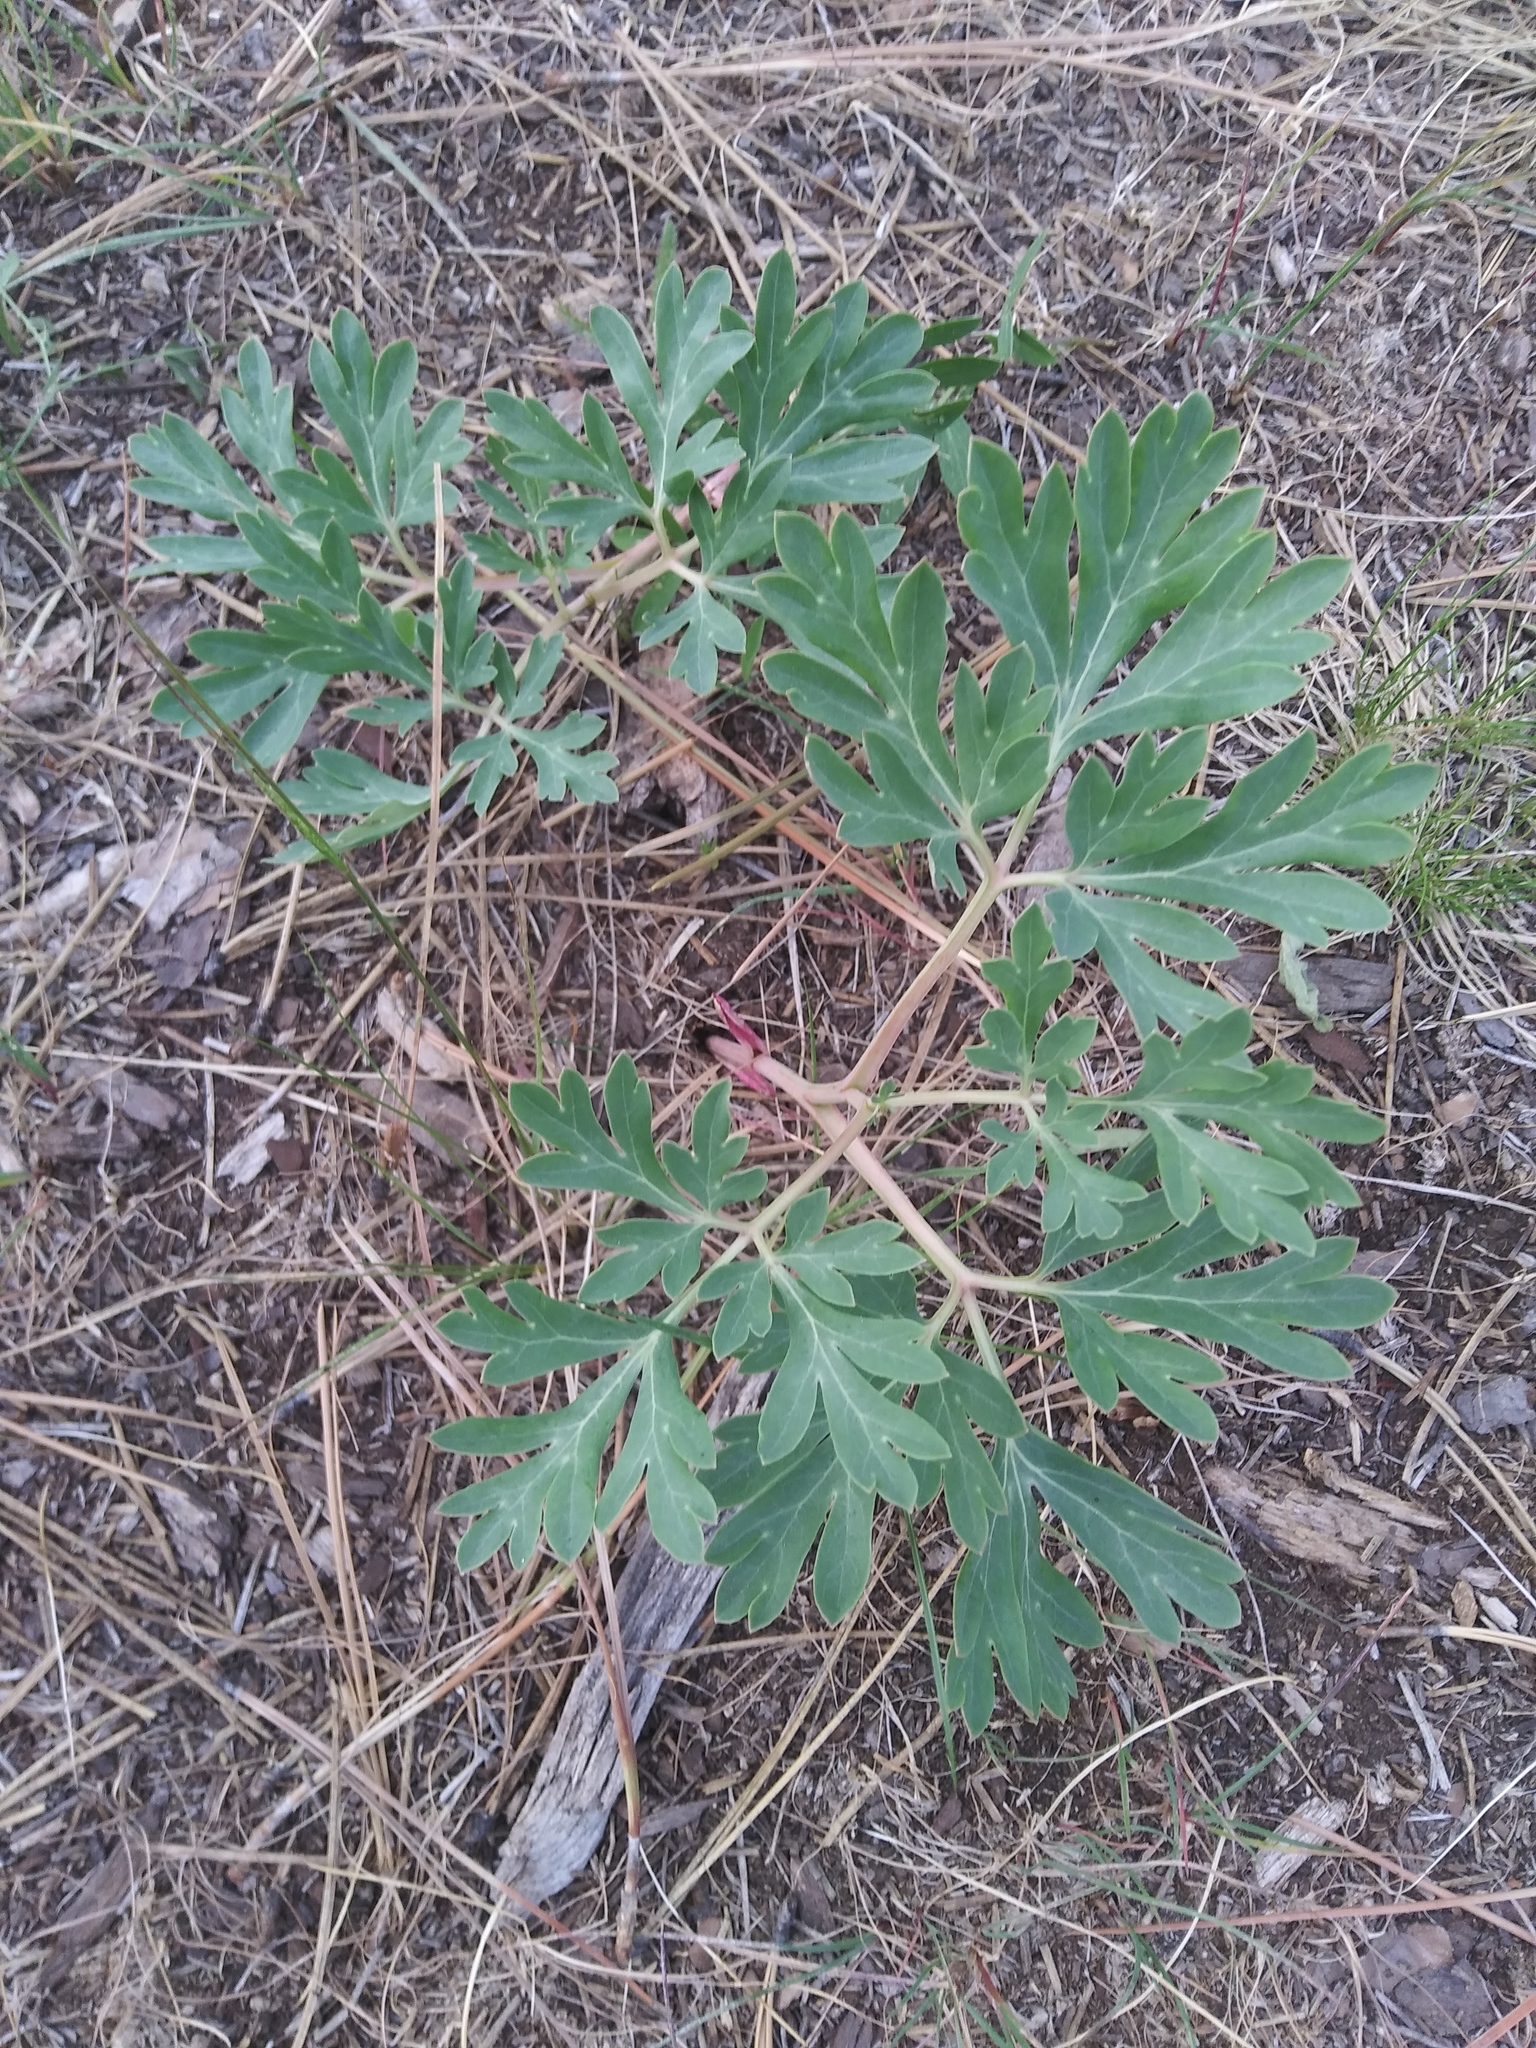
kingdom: Plantae
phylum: Tracheophyta
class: Magnoliopsida
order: Saxifragales
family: Paeoniaceae
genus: Paeonia
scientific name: Paeonia brownii
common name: Brown's peony
